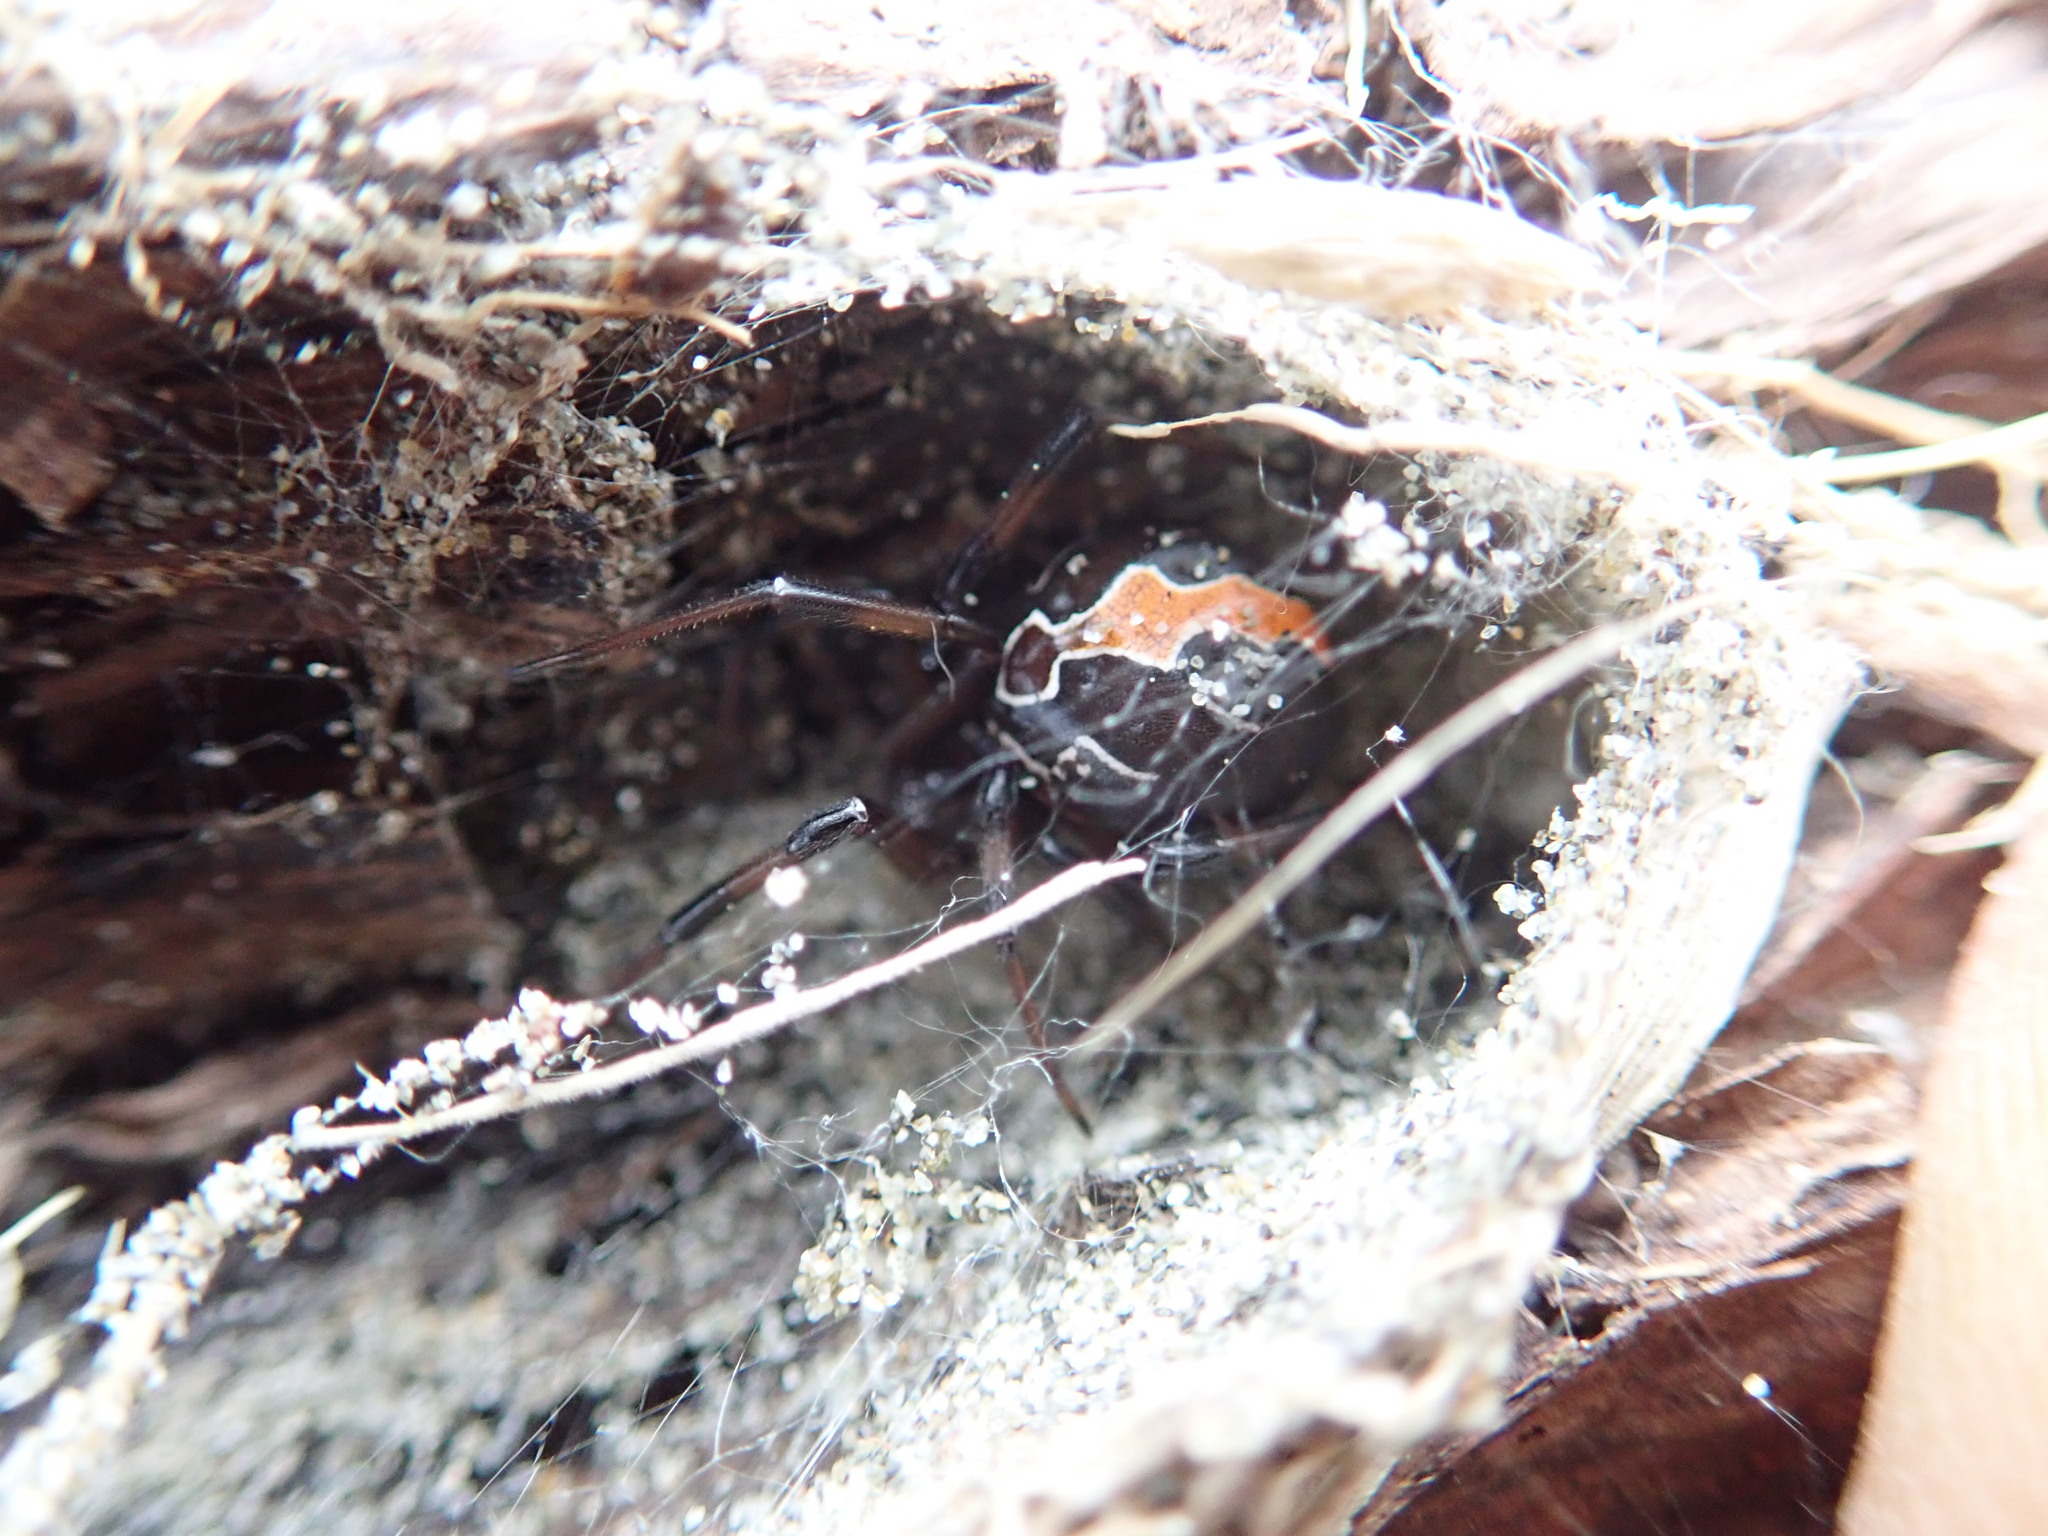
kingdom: Animalia
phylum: Arthropoda
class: Arachnida
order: Araneae
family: Theridiidae
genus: Latrodectus
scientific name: Latrodectus katipo
